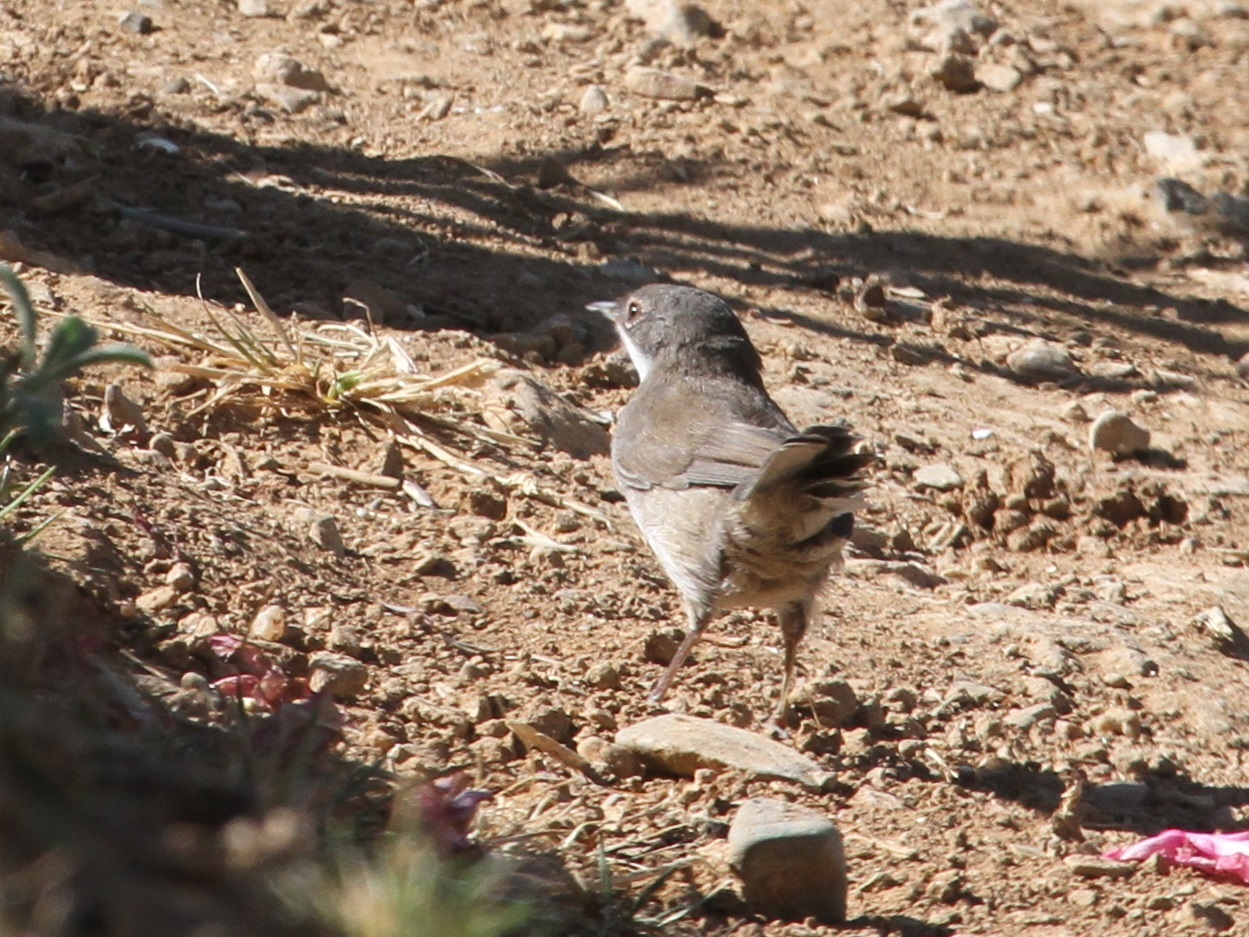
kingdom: Animalia
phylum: Chordata
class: Aves
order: Passeriformes
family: Sylviidae
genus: Curruca
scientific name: Curruca melanocephala
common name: Sardinian warbler
